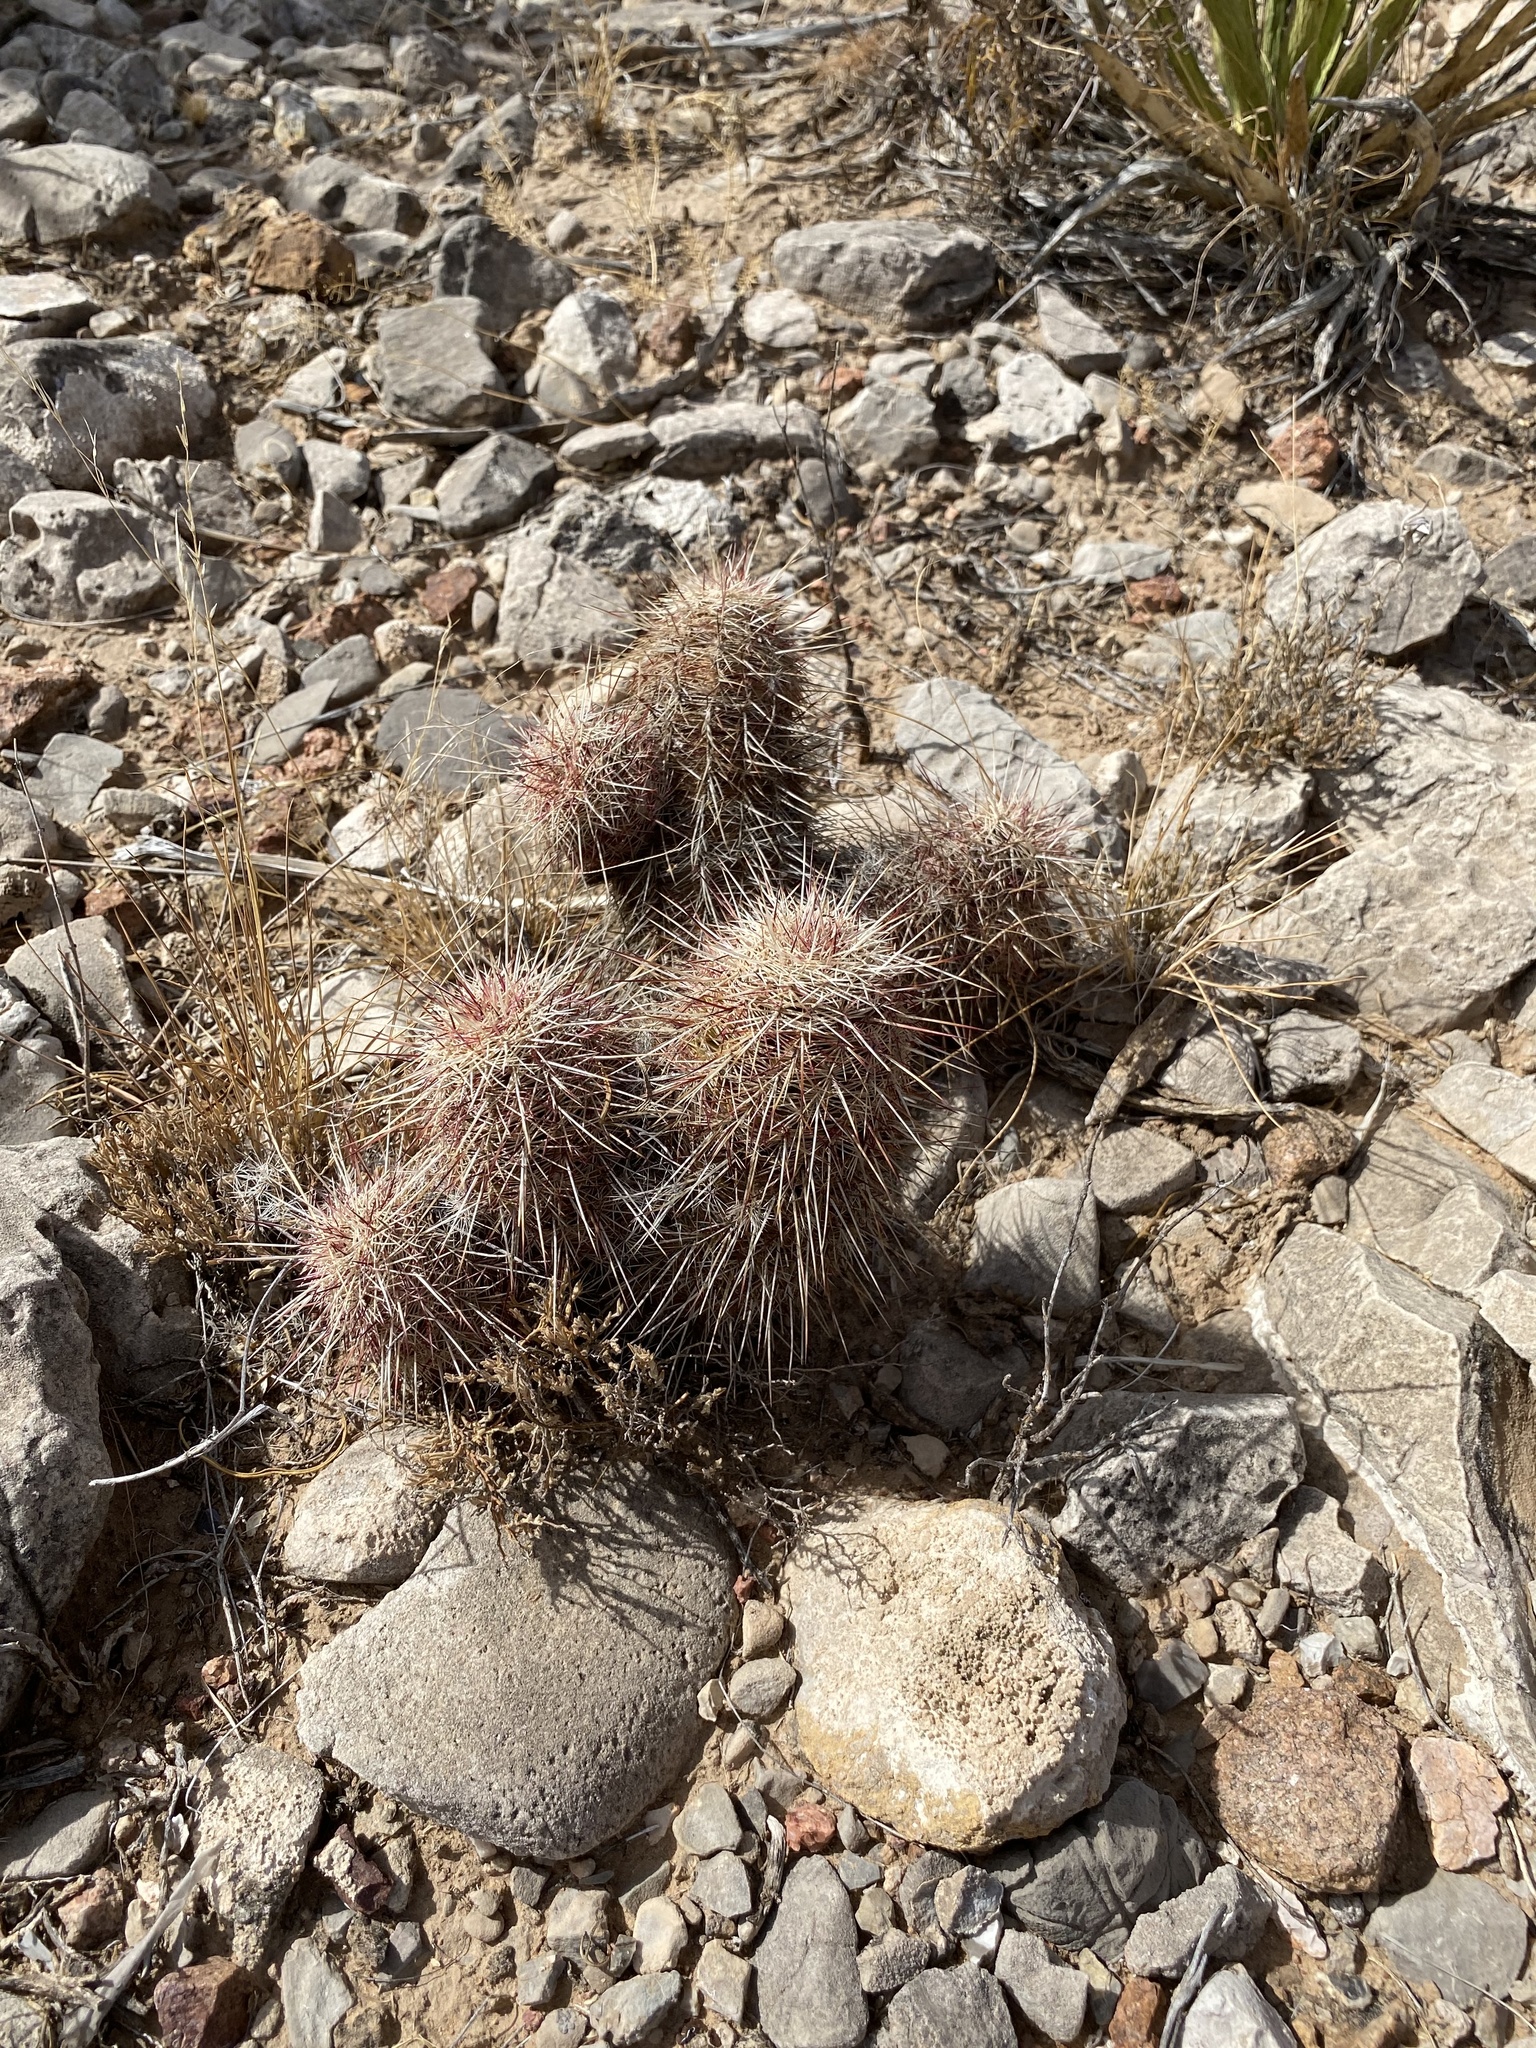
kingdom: Plantae
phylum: Tracheophyta
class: Magnoliopsida
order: Caryophyllales
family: Cactaceae
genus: Echinocereus
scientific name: Echinocereus viridiflorus
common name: Nylon hedgehog cactus
